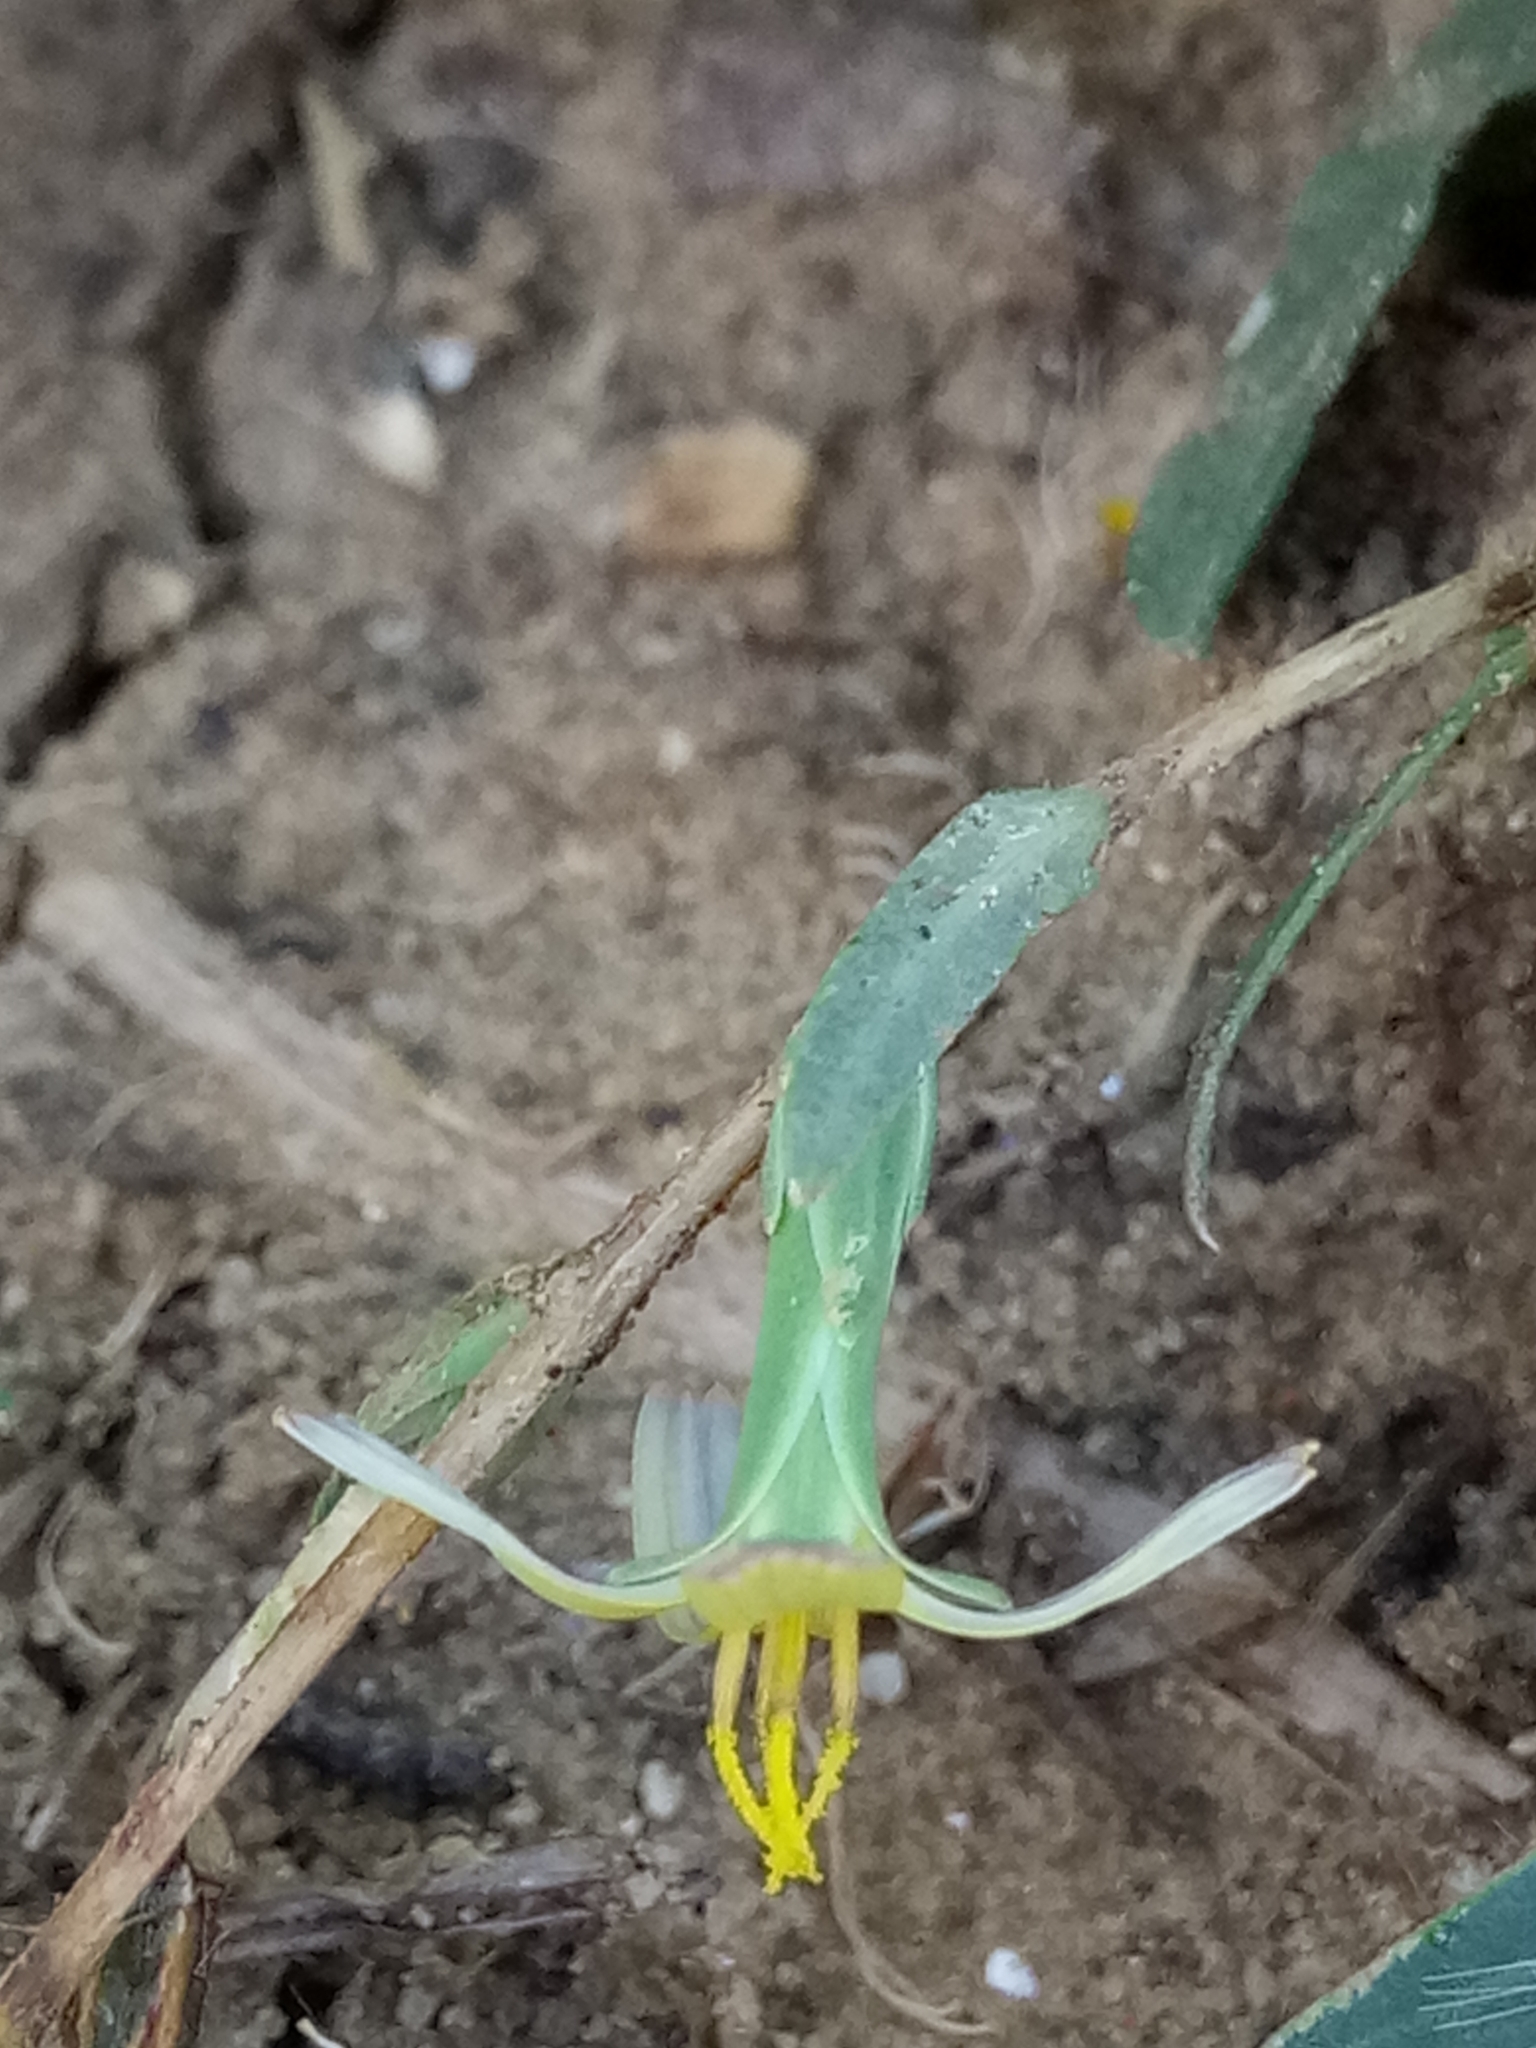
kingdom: Plantae
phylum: Tracheophyta
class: Magnoliopsida
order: Asterales
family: Asteraceae
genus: Lactuca
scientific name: Lactuca saligna
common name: Wild lettuce
